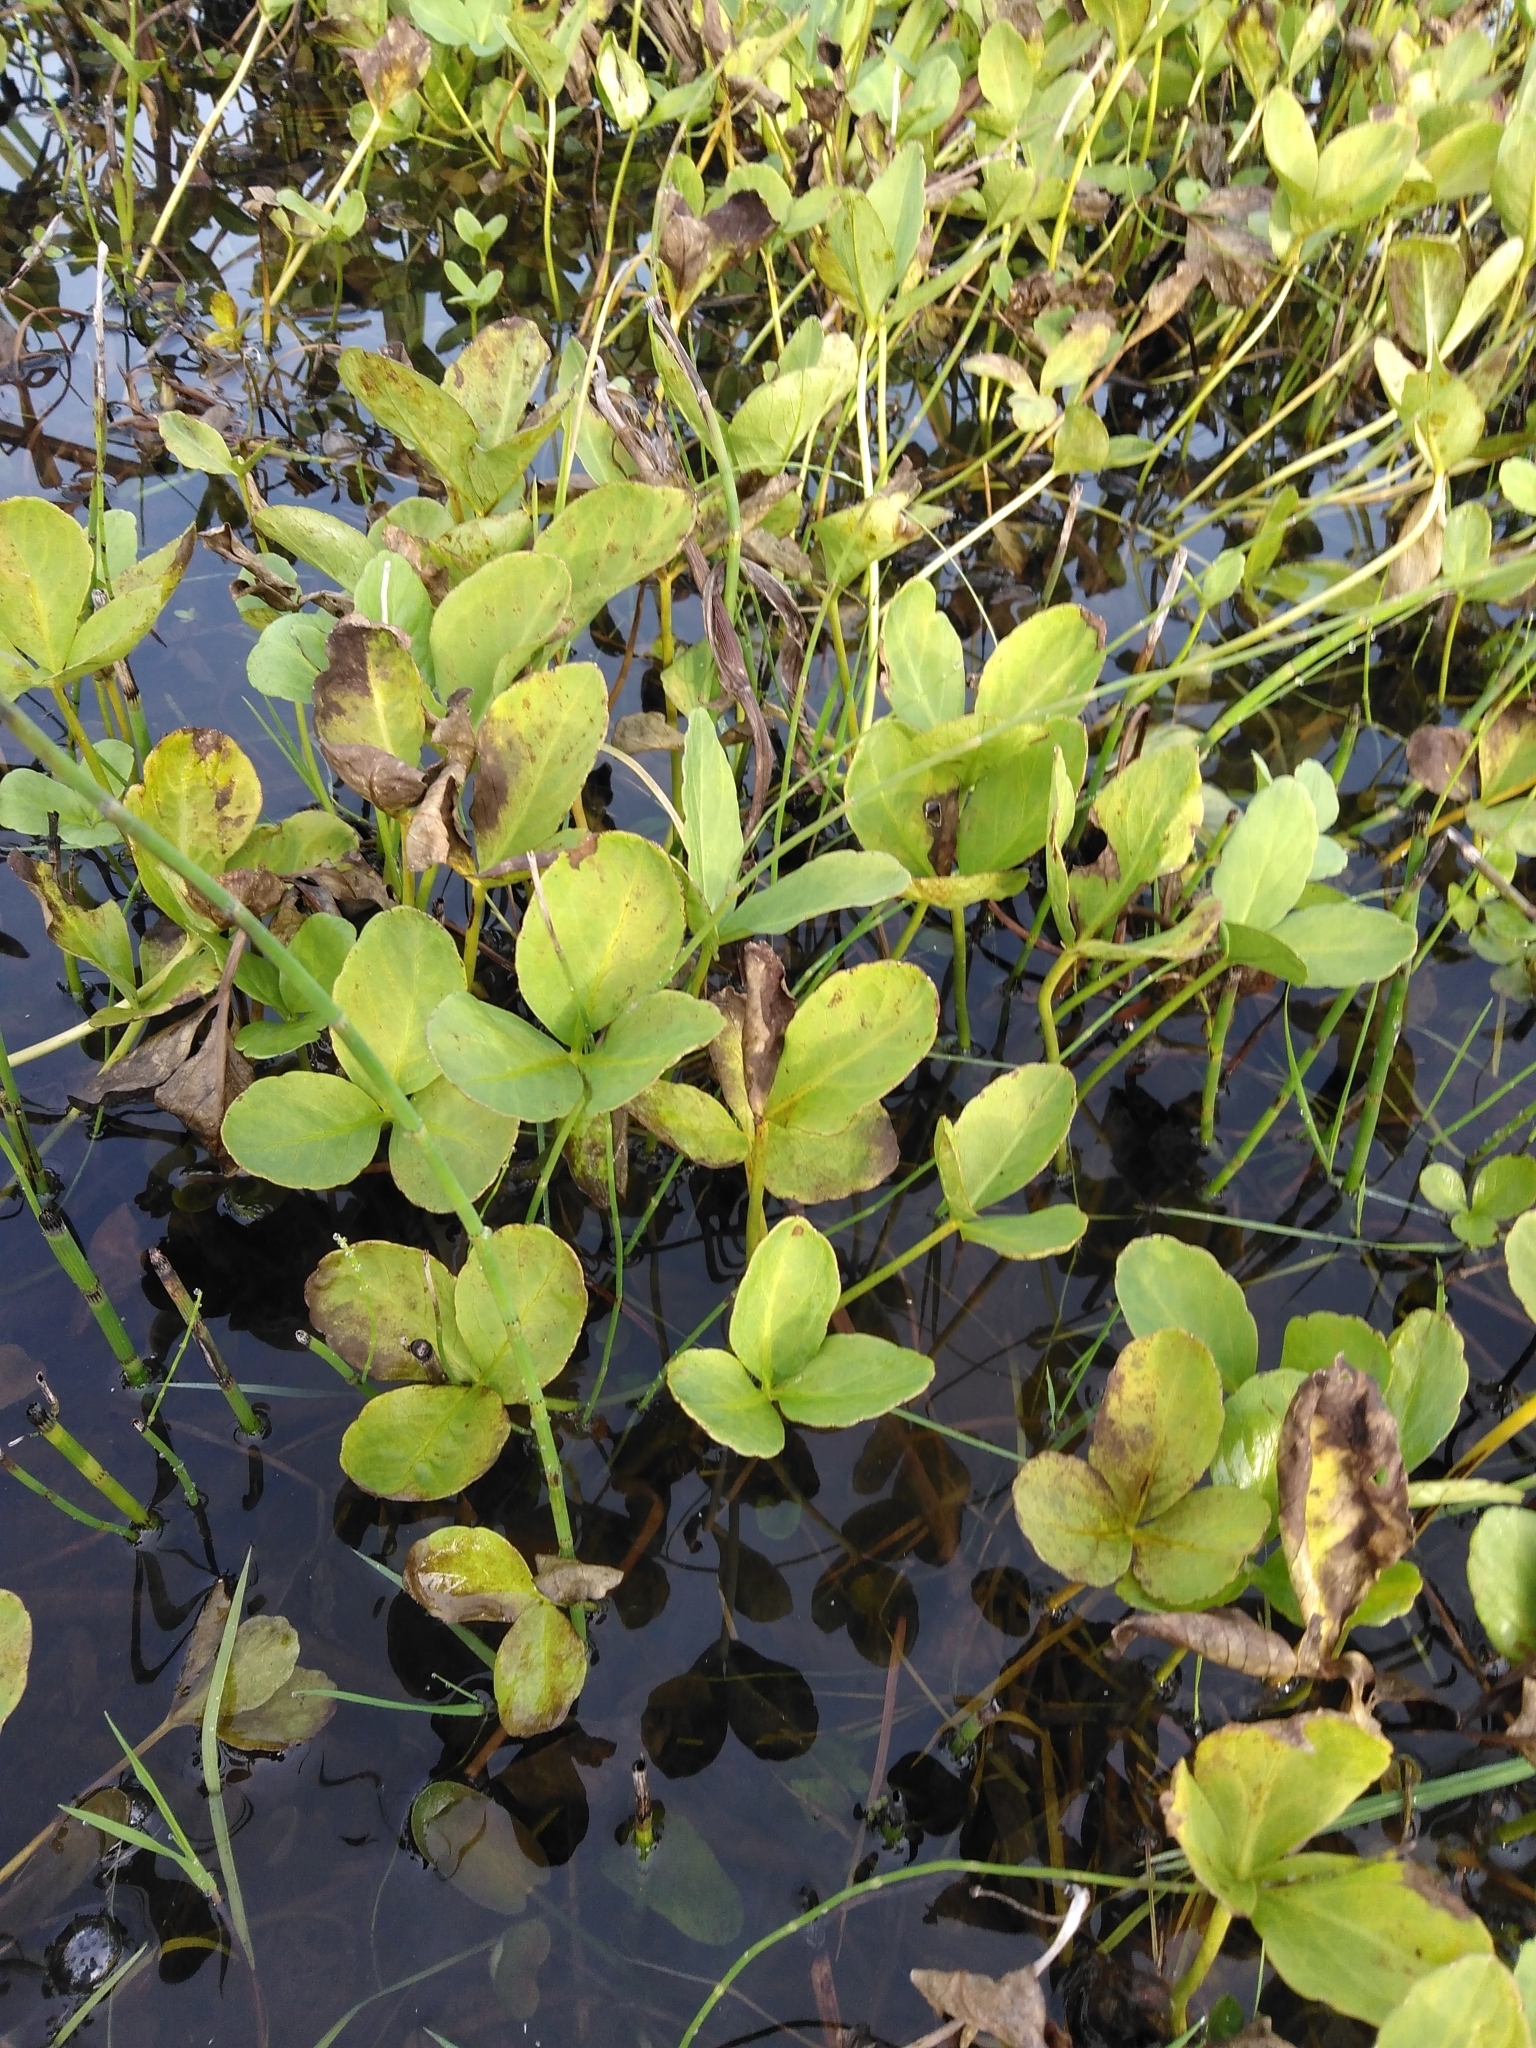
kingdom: Plantae
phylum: Tracheophyta
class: Magnoliopsida
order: Asterales
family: Menyanthaceae
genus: Menyanthes
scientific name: Menyanthes trifoliata
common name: Bogbean
